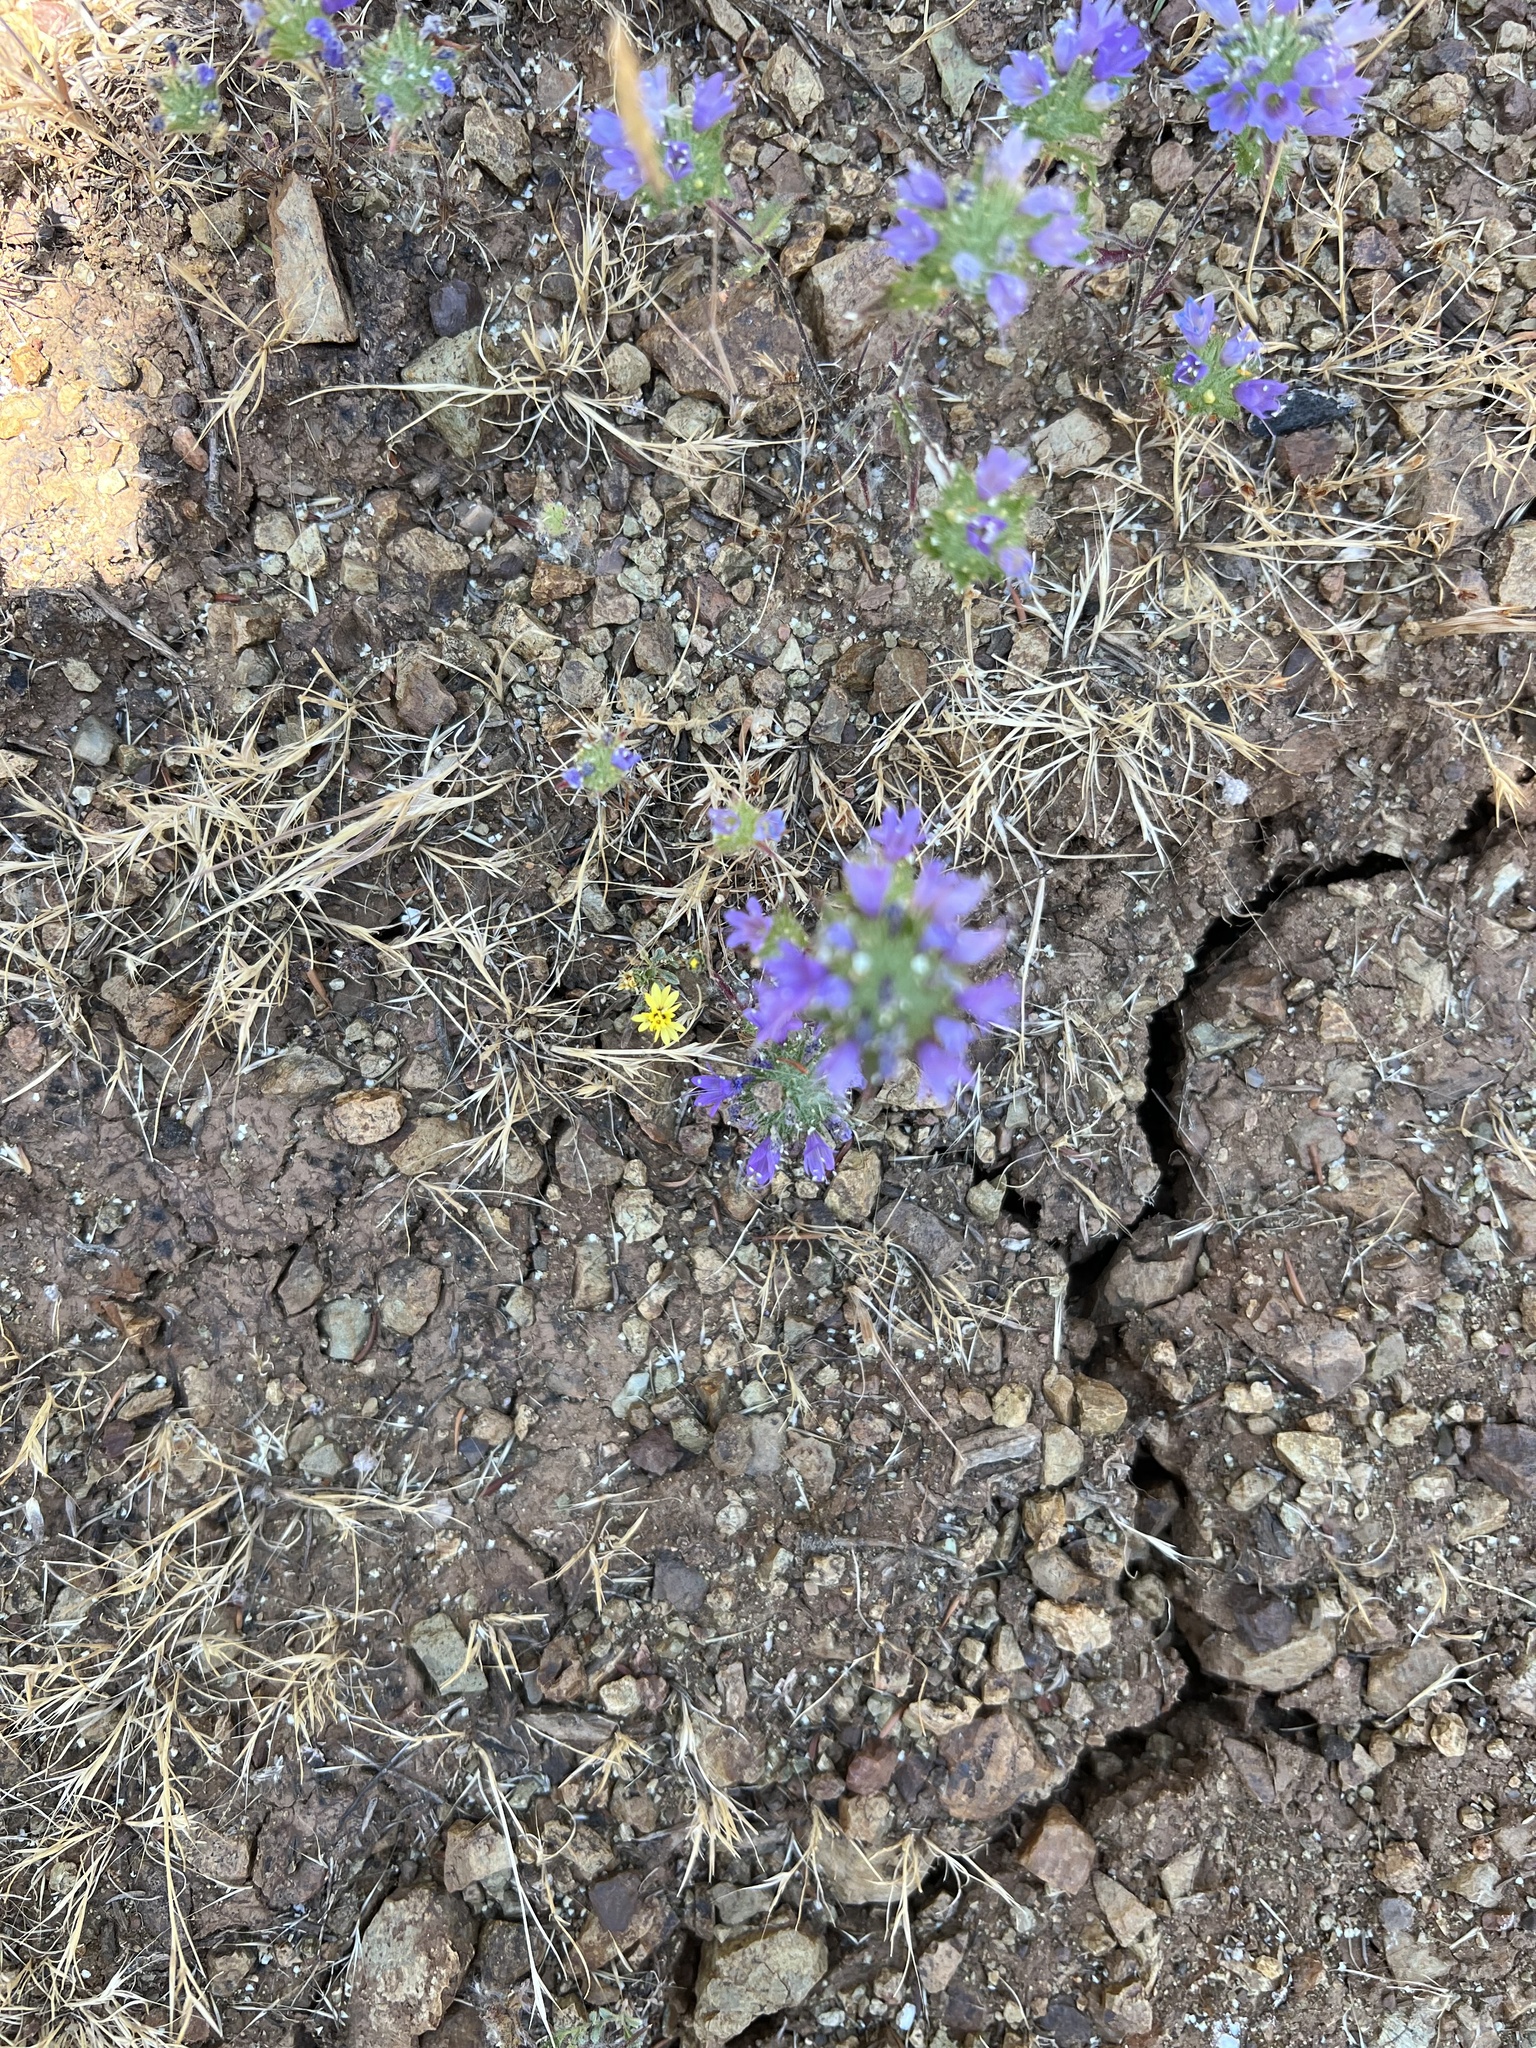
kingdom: Plantae
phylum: Tracheophyta
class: Magnoliopsida
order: Ericales
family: Polemoniaceae
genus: Navarretia
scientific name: Navarretia heterodoxa
